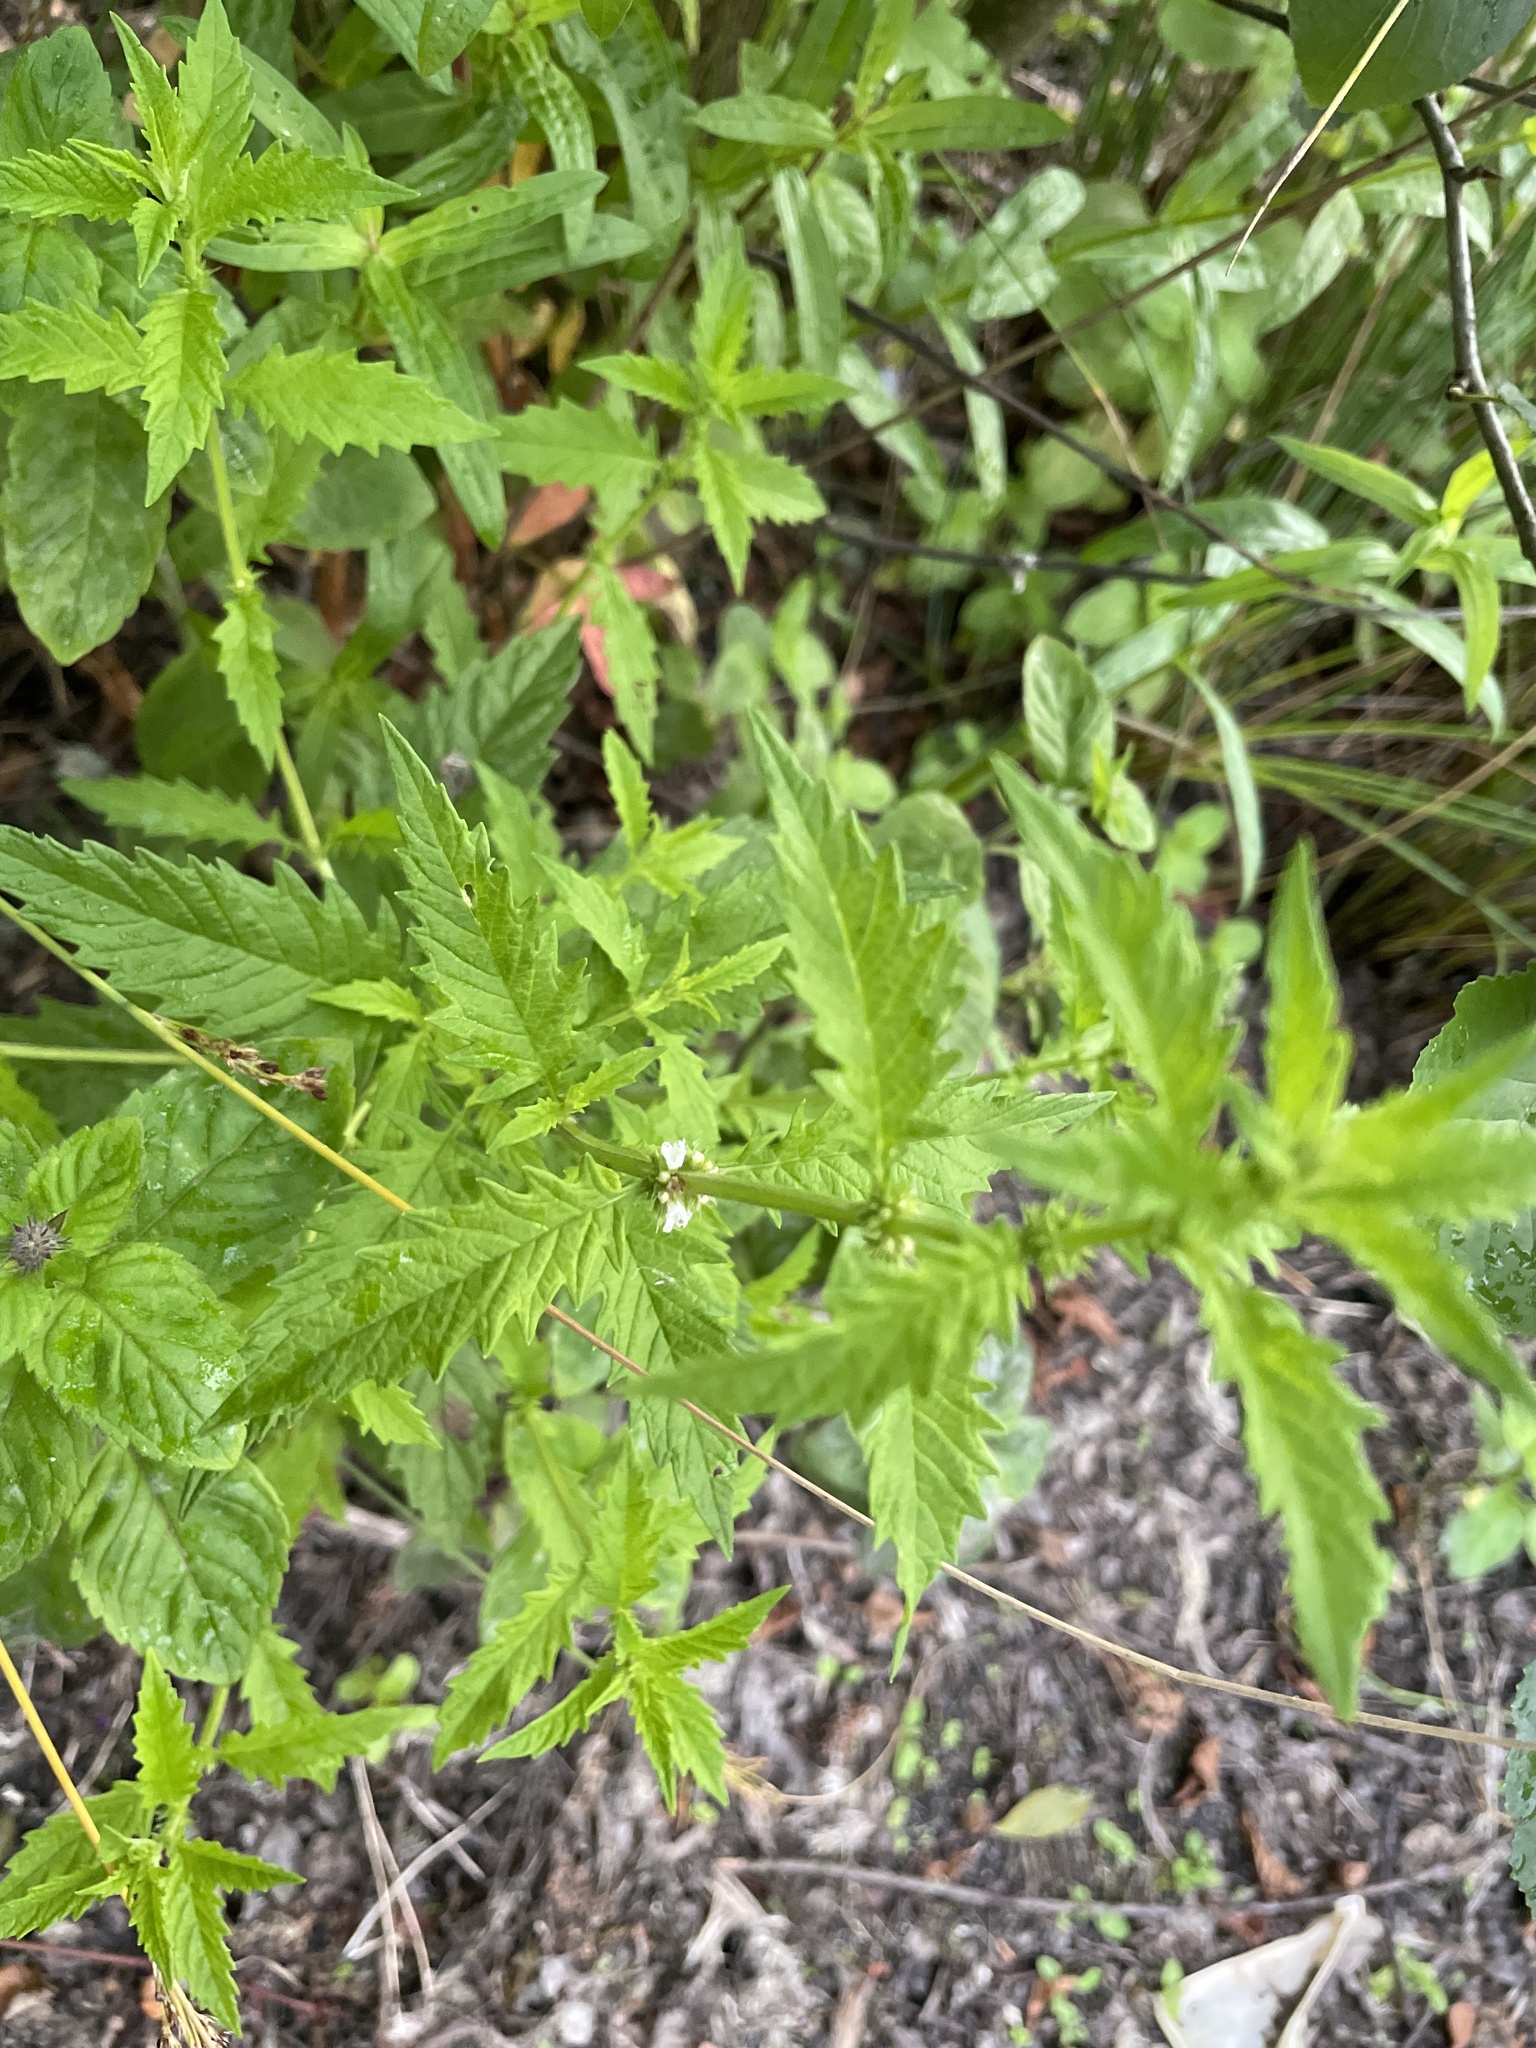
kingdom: Plantae
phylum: Tracheophyta
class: Magnoliopsida
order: Lamiales
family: Lamiaceae
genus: Lycopus
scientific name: Lycopus europaeus
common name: European bugleweed
